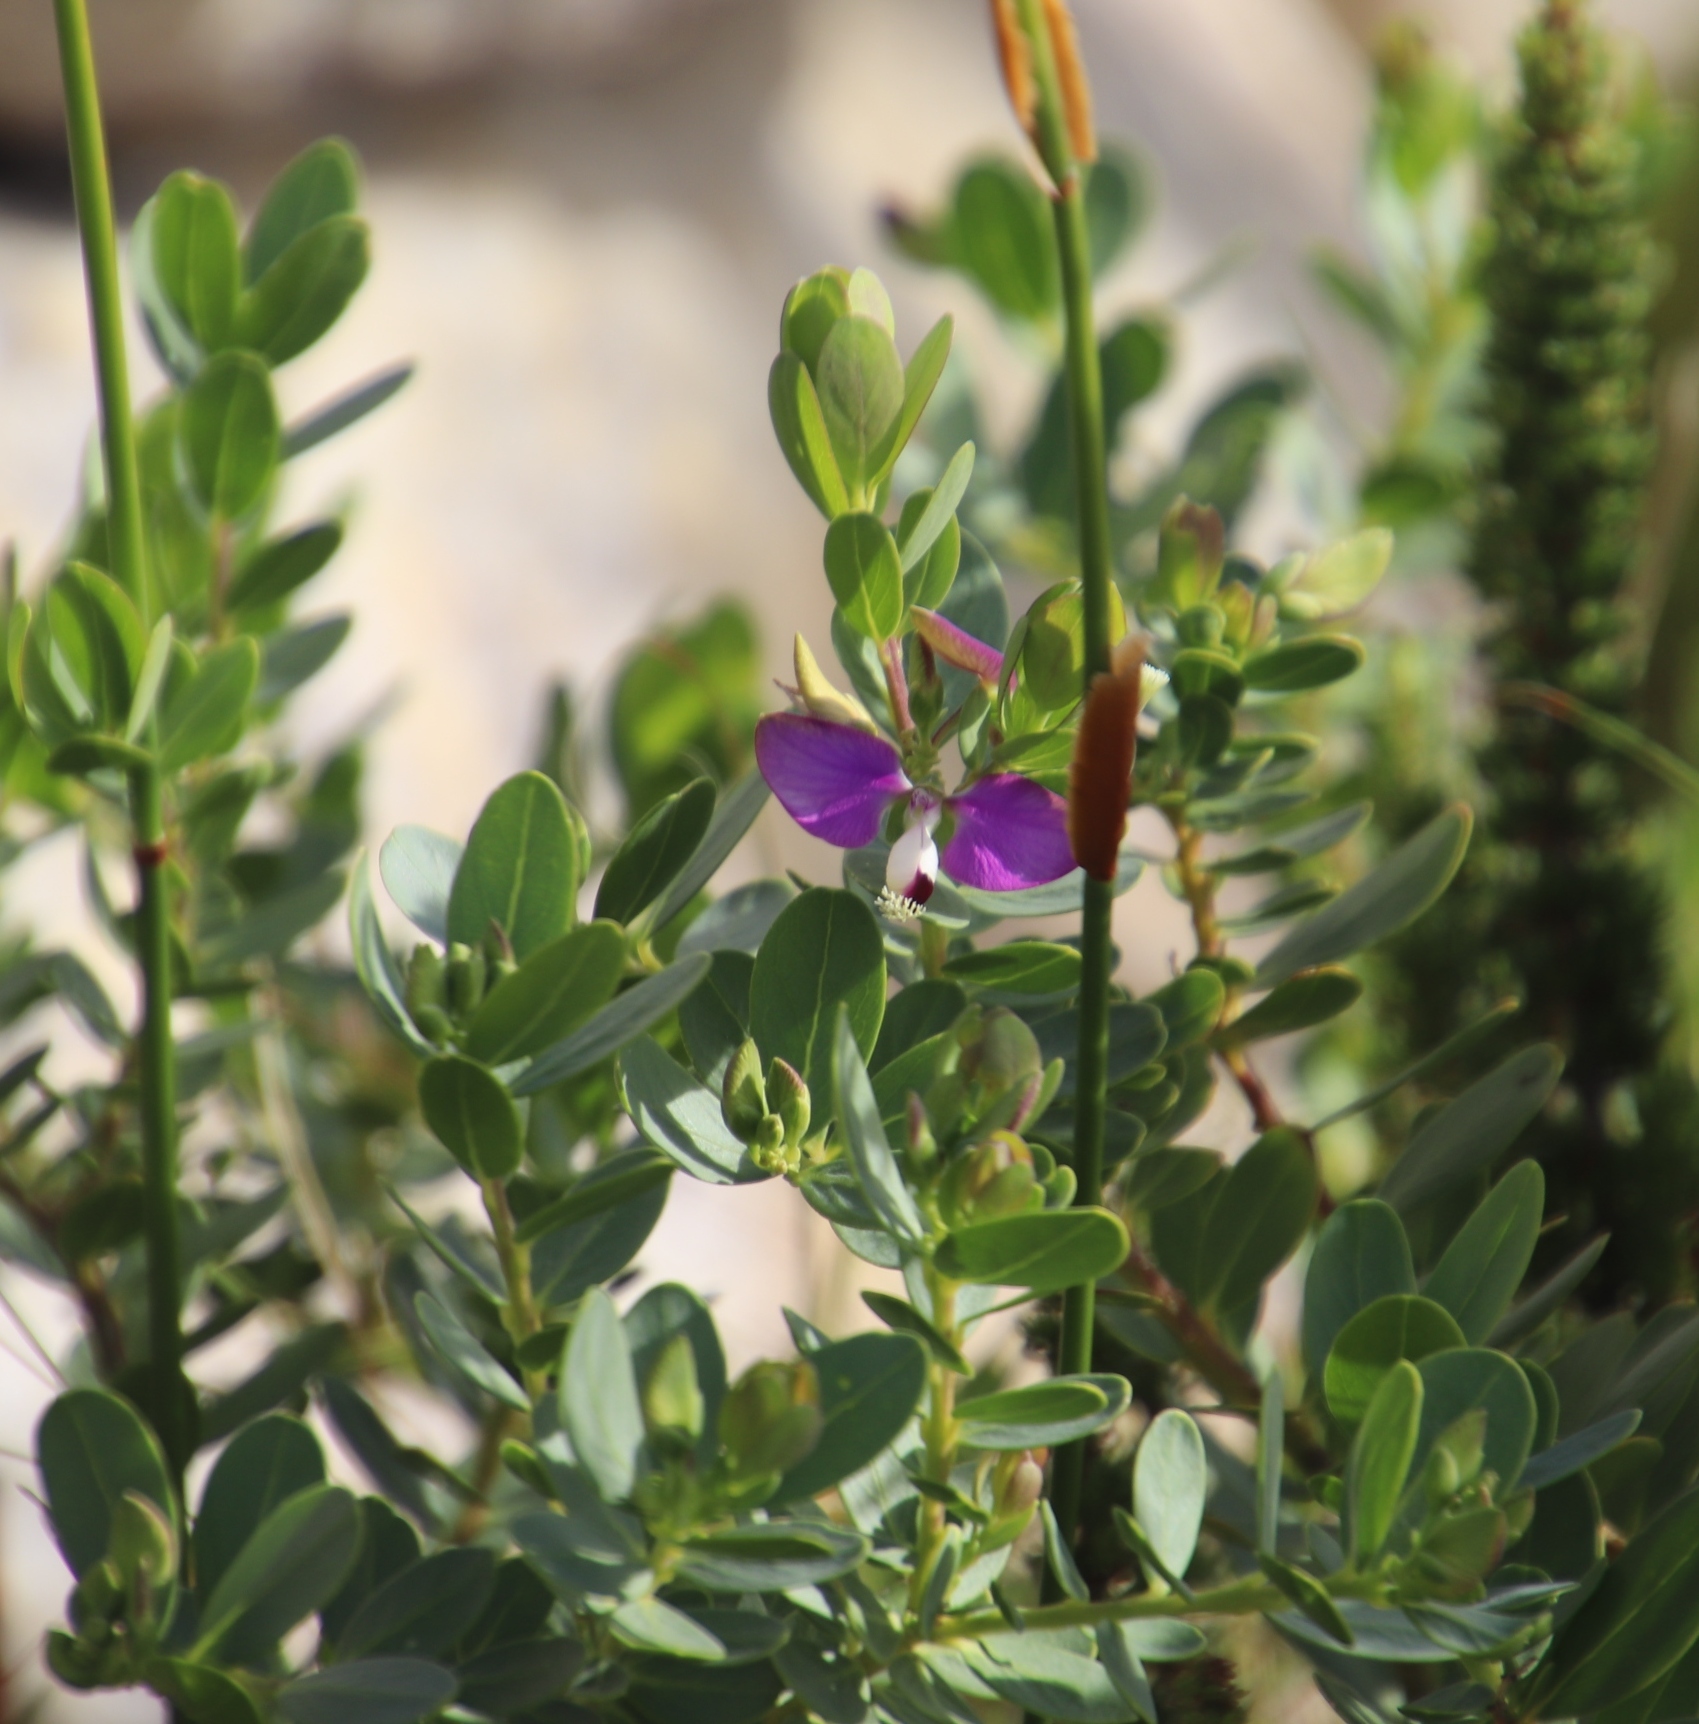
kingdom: Plantae
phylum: Tracheophyta
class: Magnoliopsida
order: Fabales
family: Polygalaceae
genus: Polygala
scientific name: Polygala myrtifolia
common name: Myrtle-leaf milkwort
